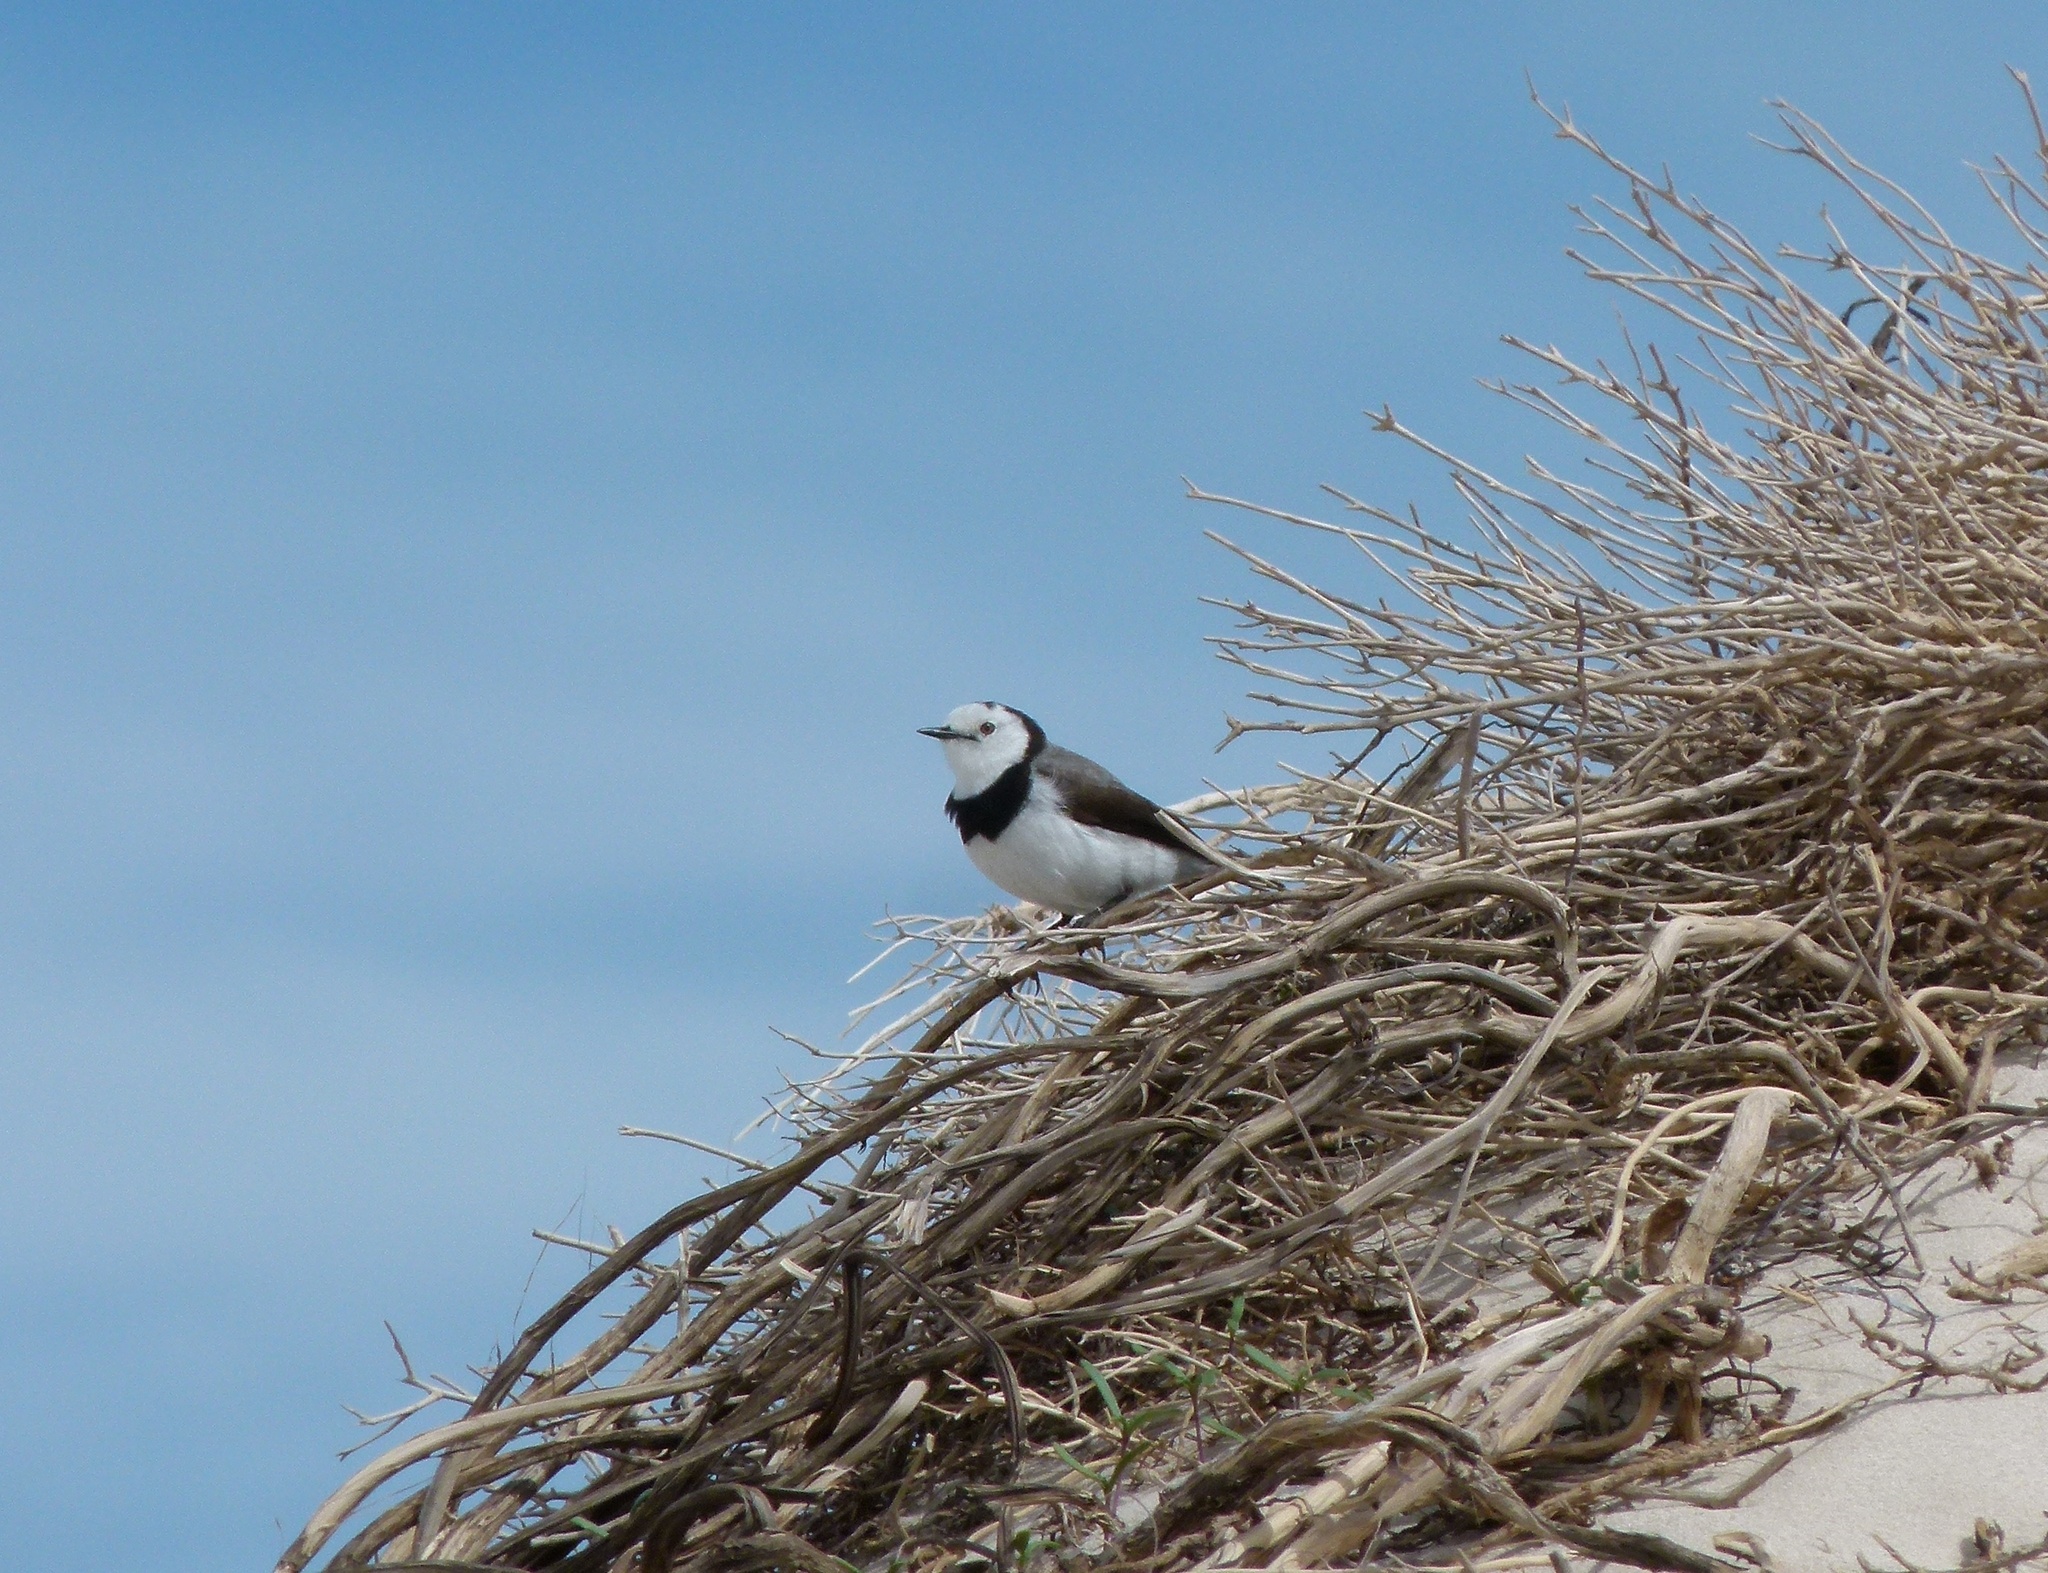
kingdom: Animalia
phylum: Chordata
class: Aves
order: Passeriformes
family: Meliphagidae
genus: Epthianura
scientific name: Epthianura albifrons
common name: White-fronted chat
